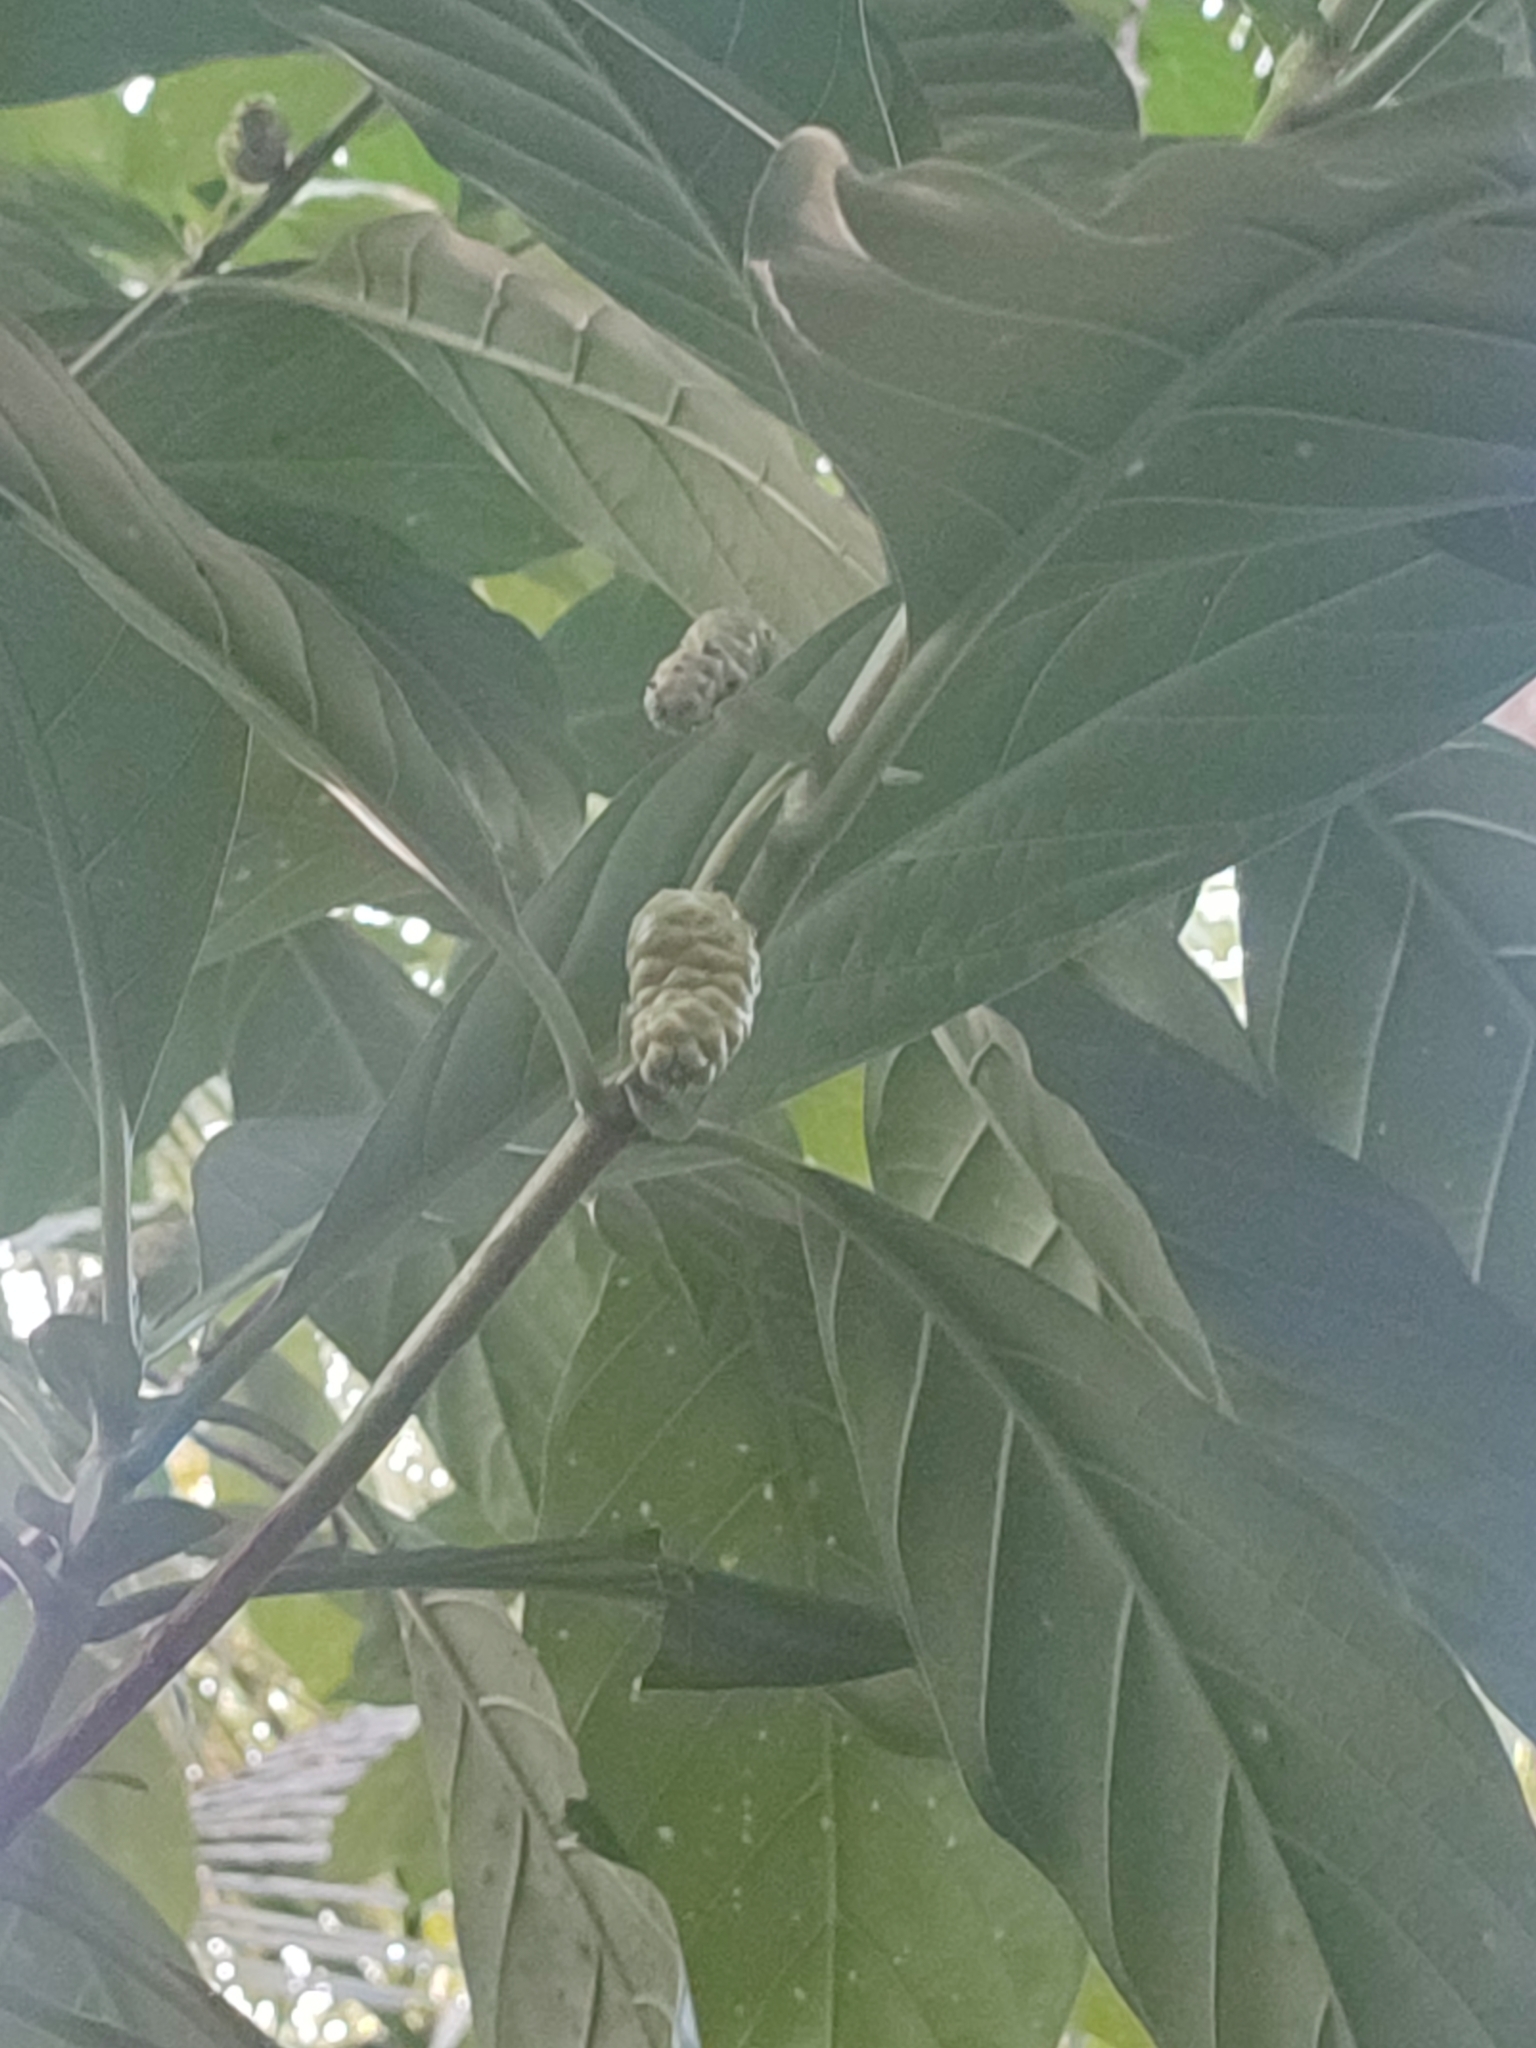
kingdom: Plantae
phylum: Tracheophyta
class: Magnoliopsida
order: Gentianales
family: Rubiaceae
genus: Morinda
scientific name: Morinda citrifolia
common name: Indian-mulberry
